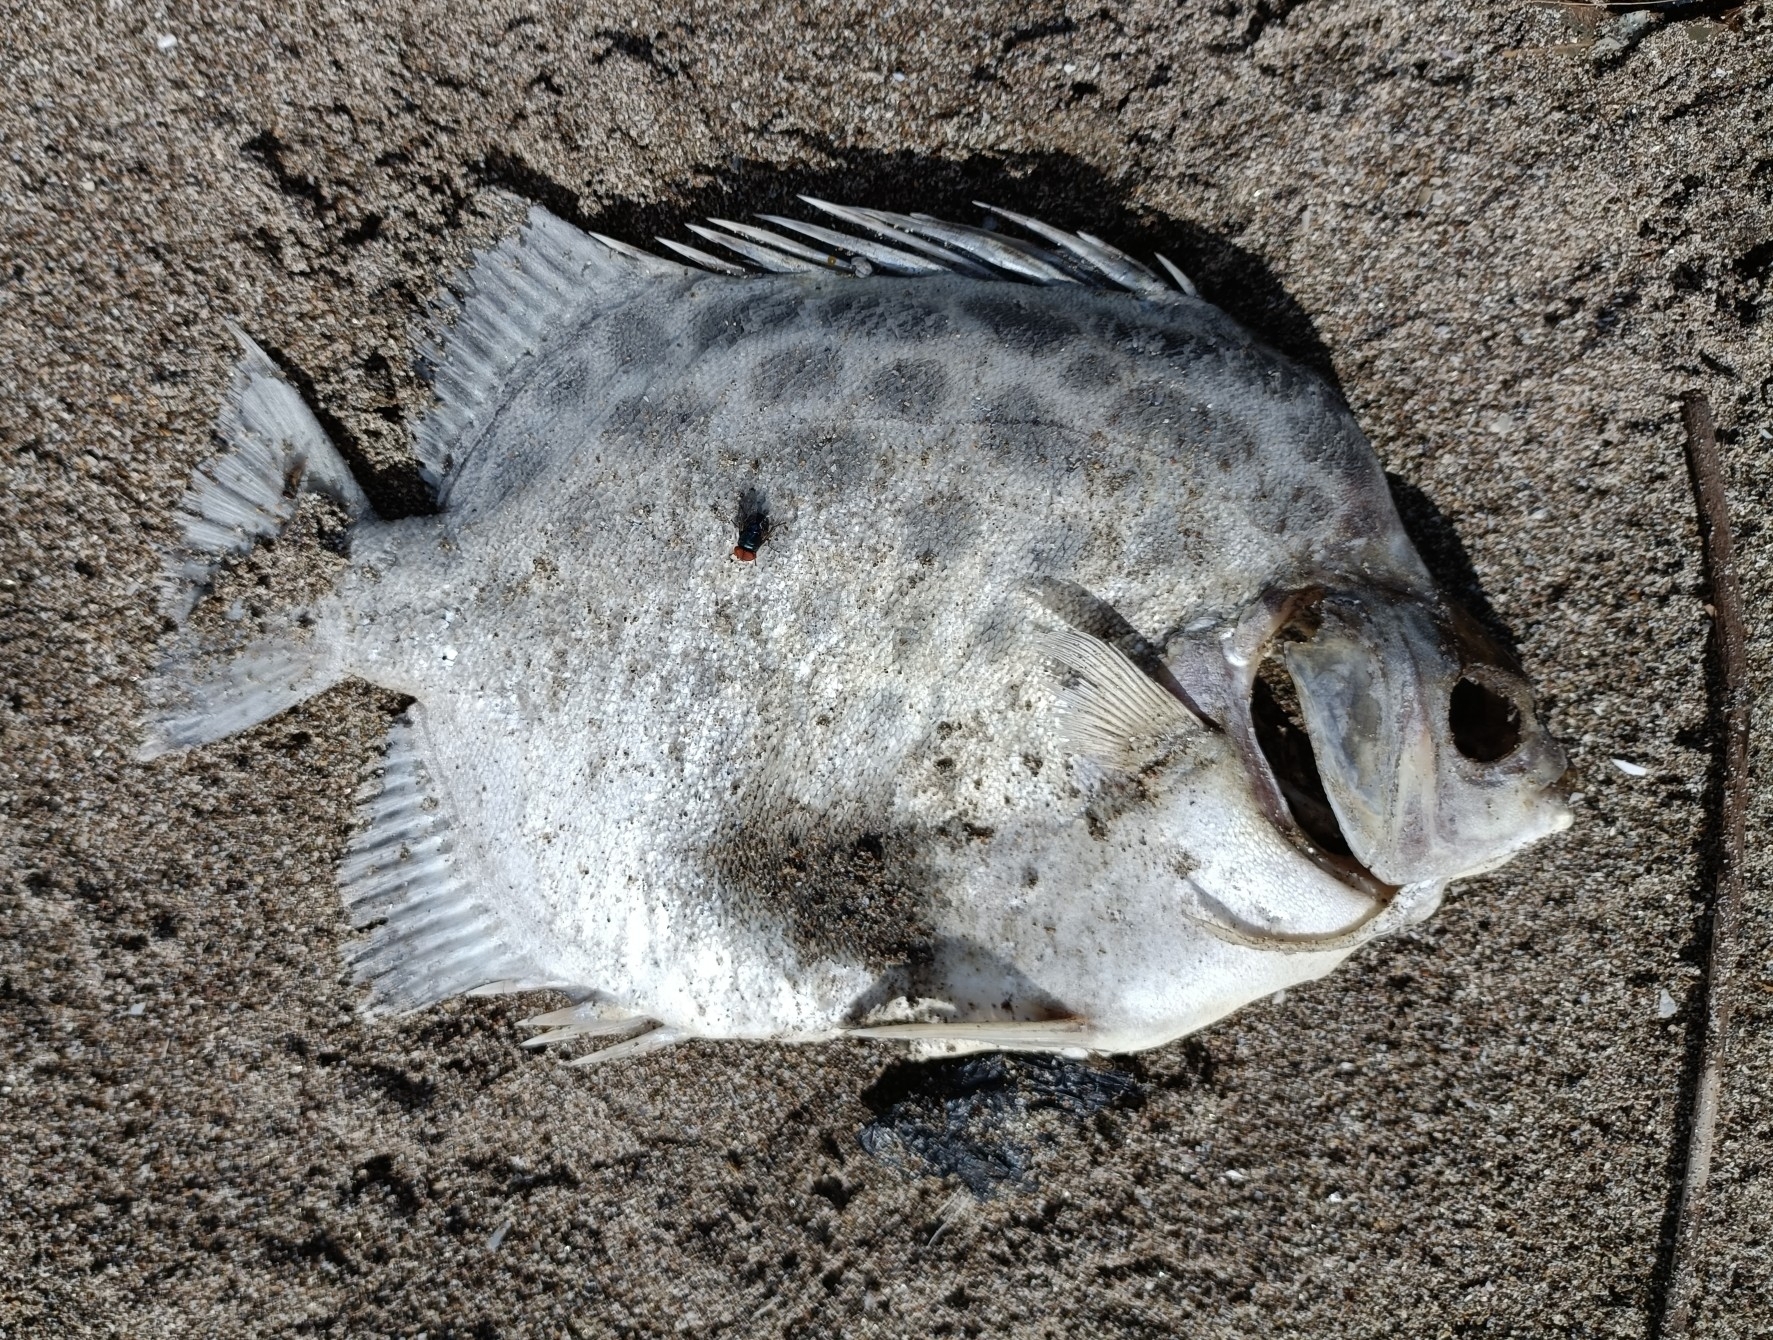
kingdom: Animalia
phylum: Chordata
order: Perciformes
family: Scatophagidae
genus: Scatophagus
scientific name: Scatophagus argus
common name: Spotted scat
